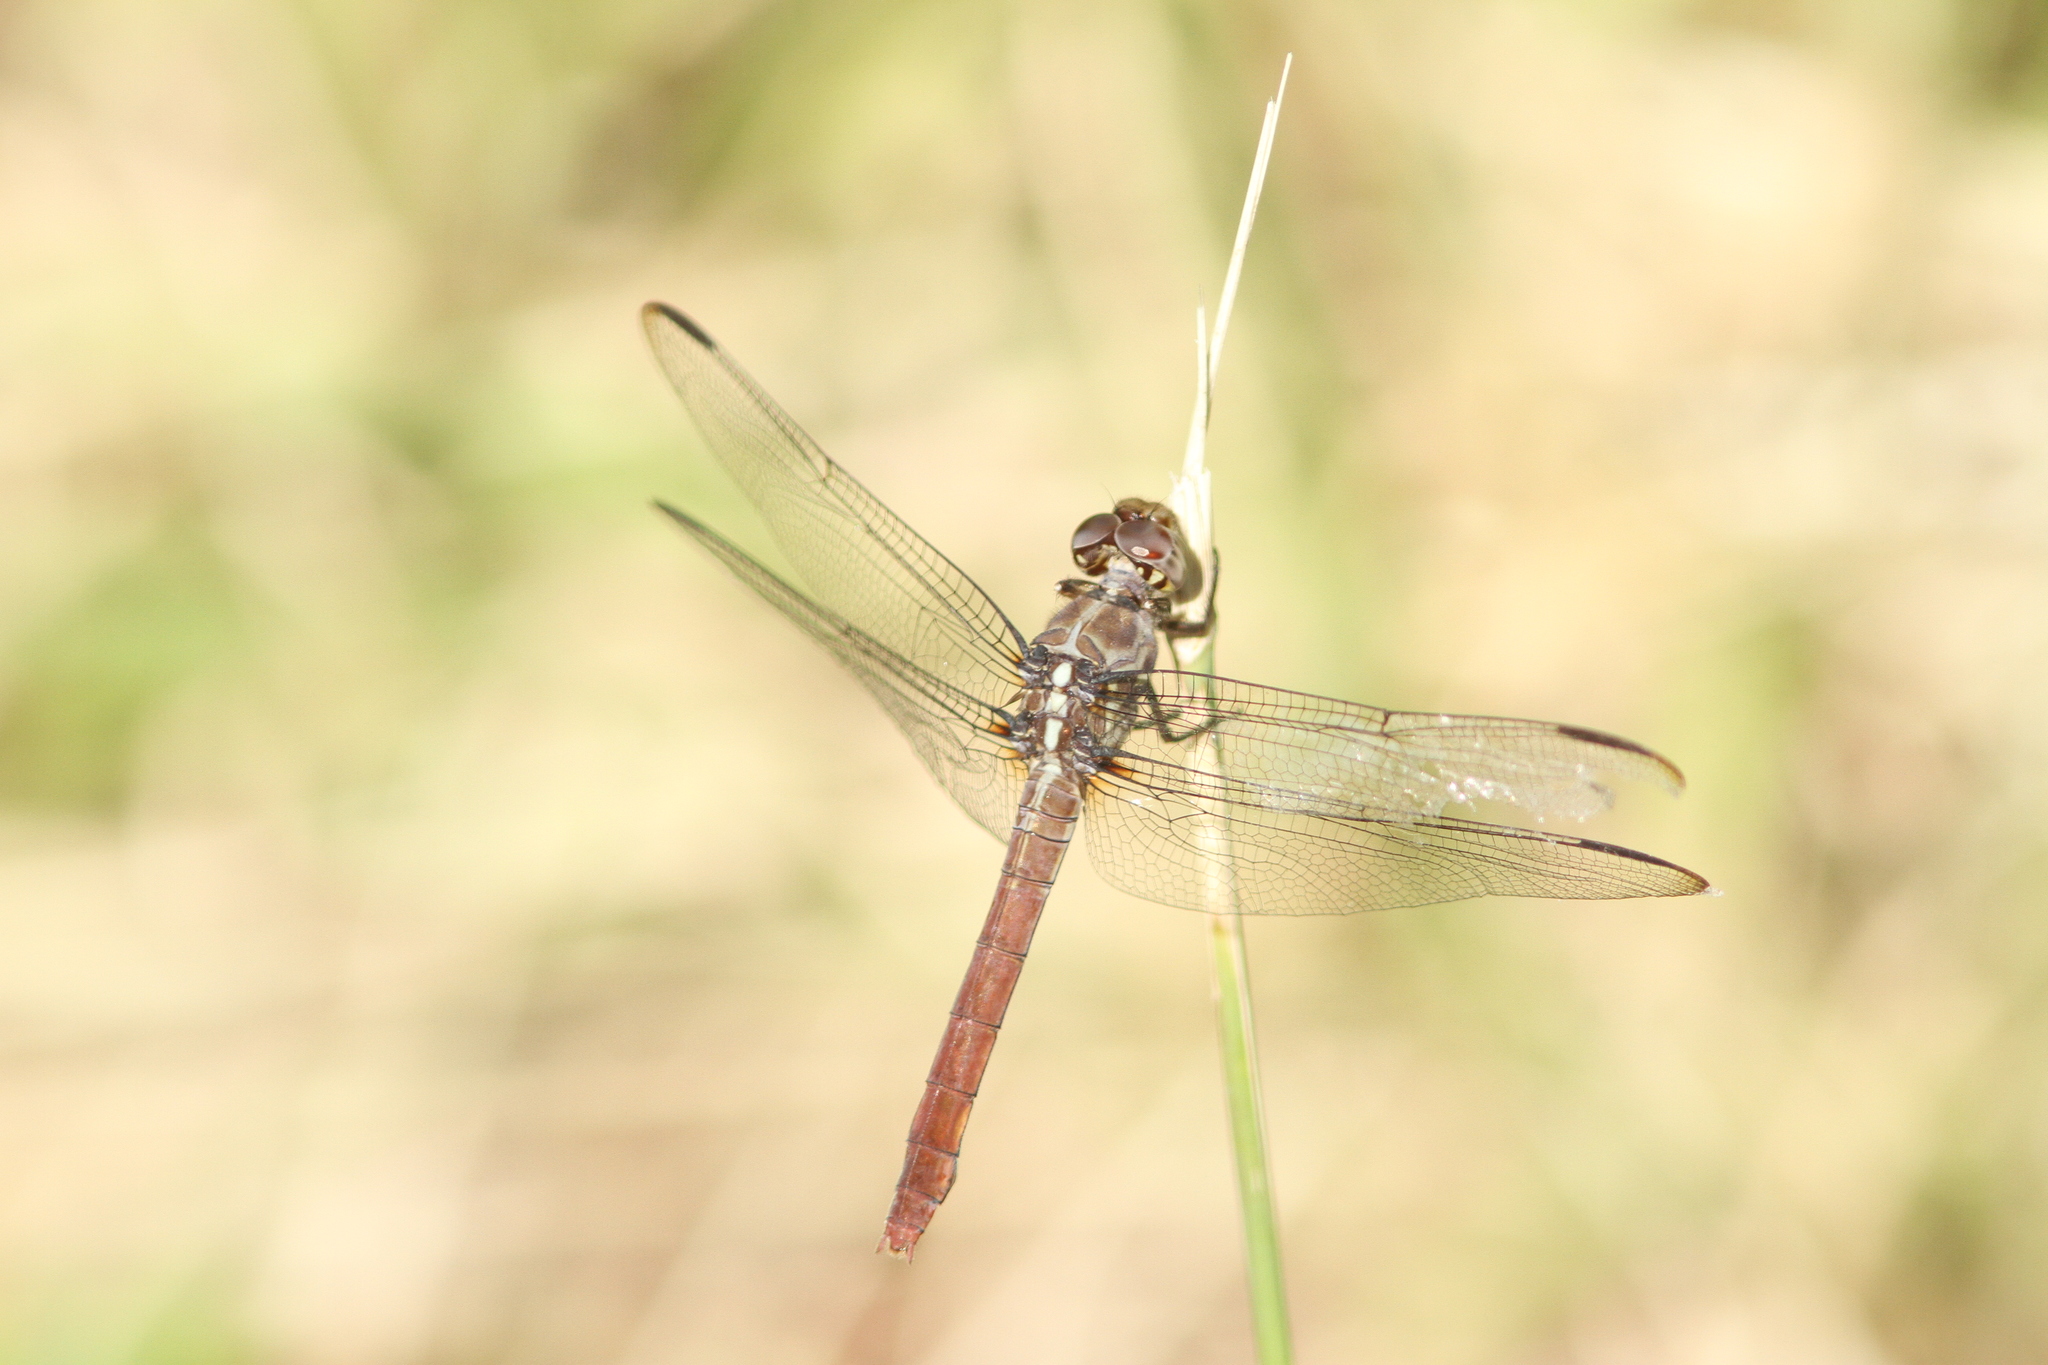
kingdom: Animalia
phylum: Arthropoda
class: Insecta
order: Odonata
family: Libellulidae
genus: Orthemis
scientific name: Orthemis ferruginea
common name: Roseate skimmer
